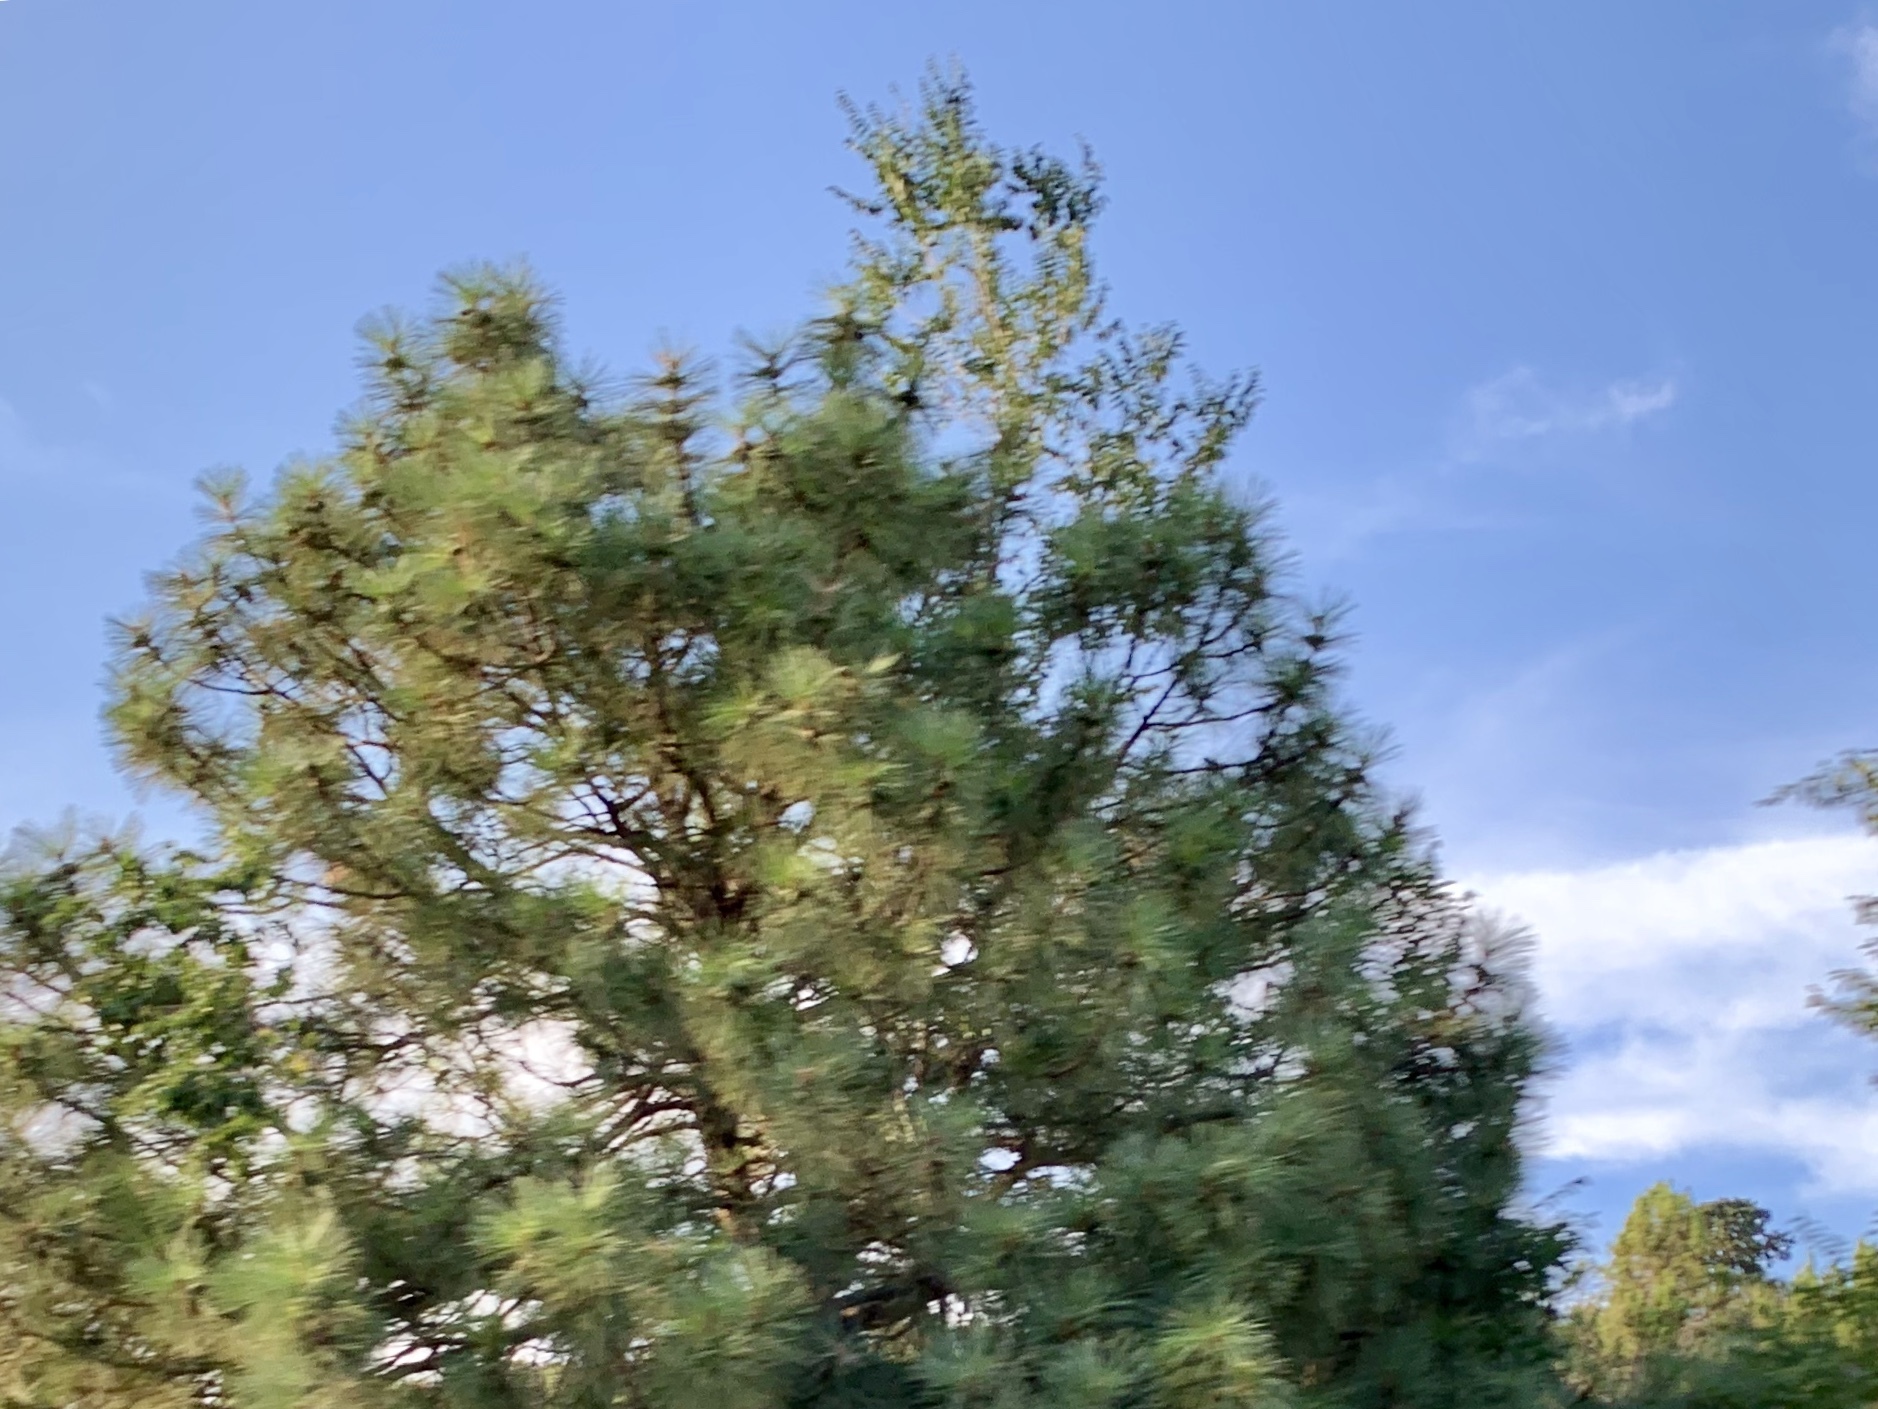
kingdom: Plantae
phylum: Tracheophyta
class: Pinopsida
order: Pinales
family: Pinaceae
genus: Pinus
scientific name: Pinus ponderosa
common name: Western yellow-pine
